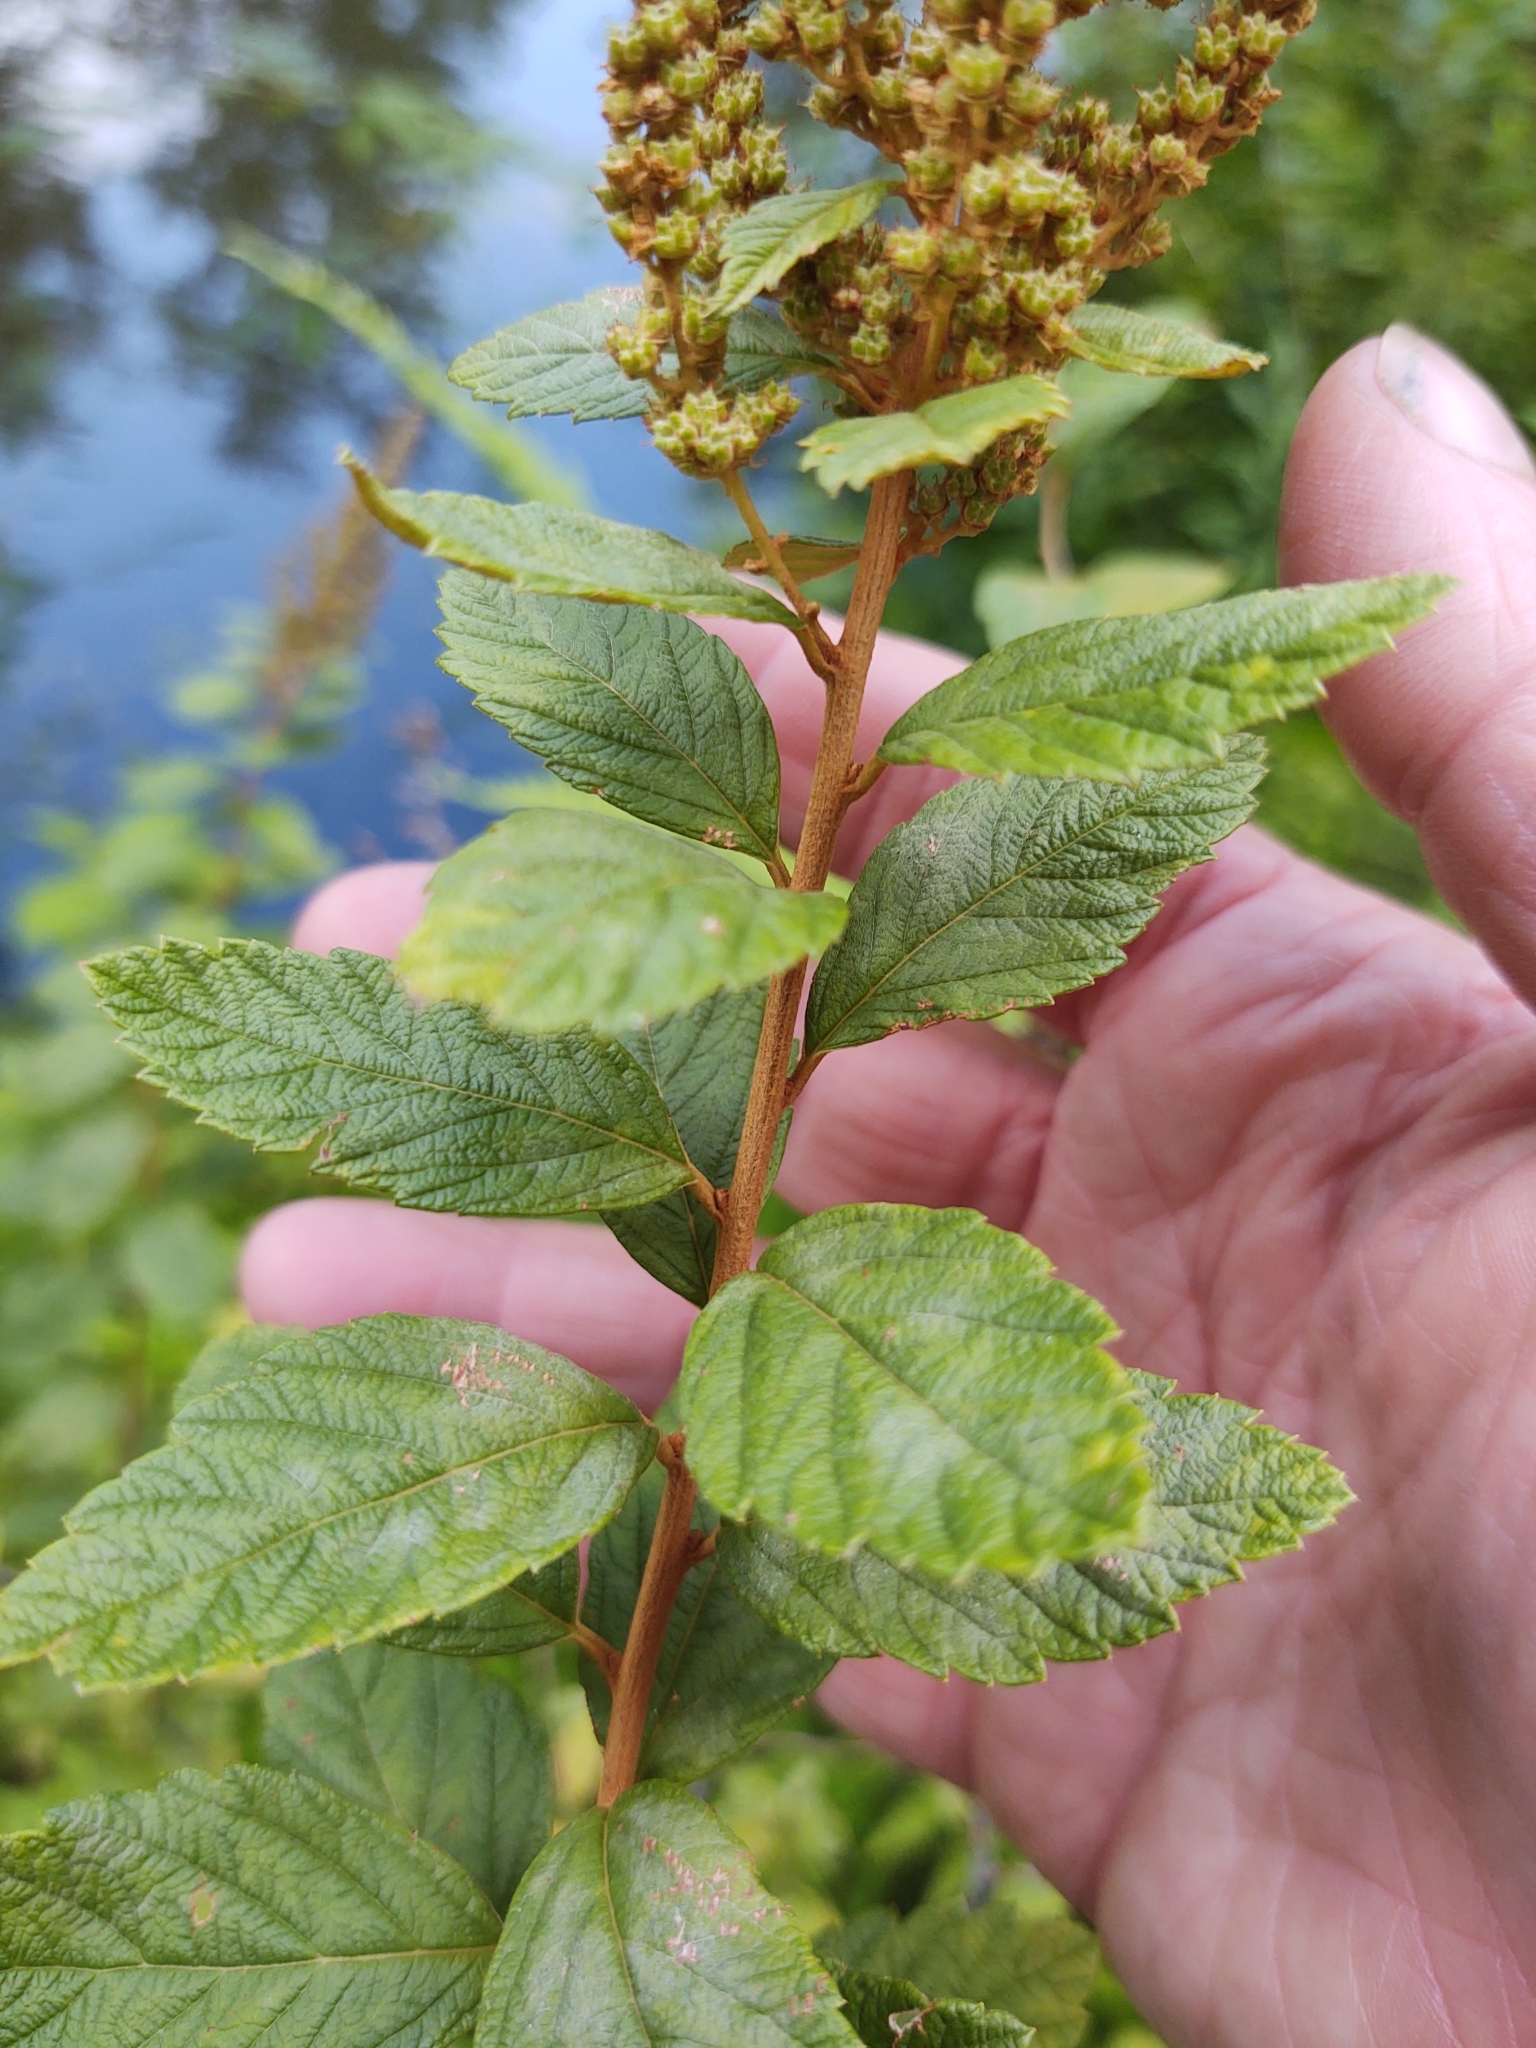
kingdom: Plantae
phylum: Tracheophyta
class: Magnoliopsida
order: Rosales
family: Rosaceae
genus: Spiraea
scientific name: Spiraea tomentosa
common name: Hardhack
